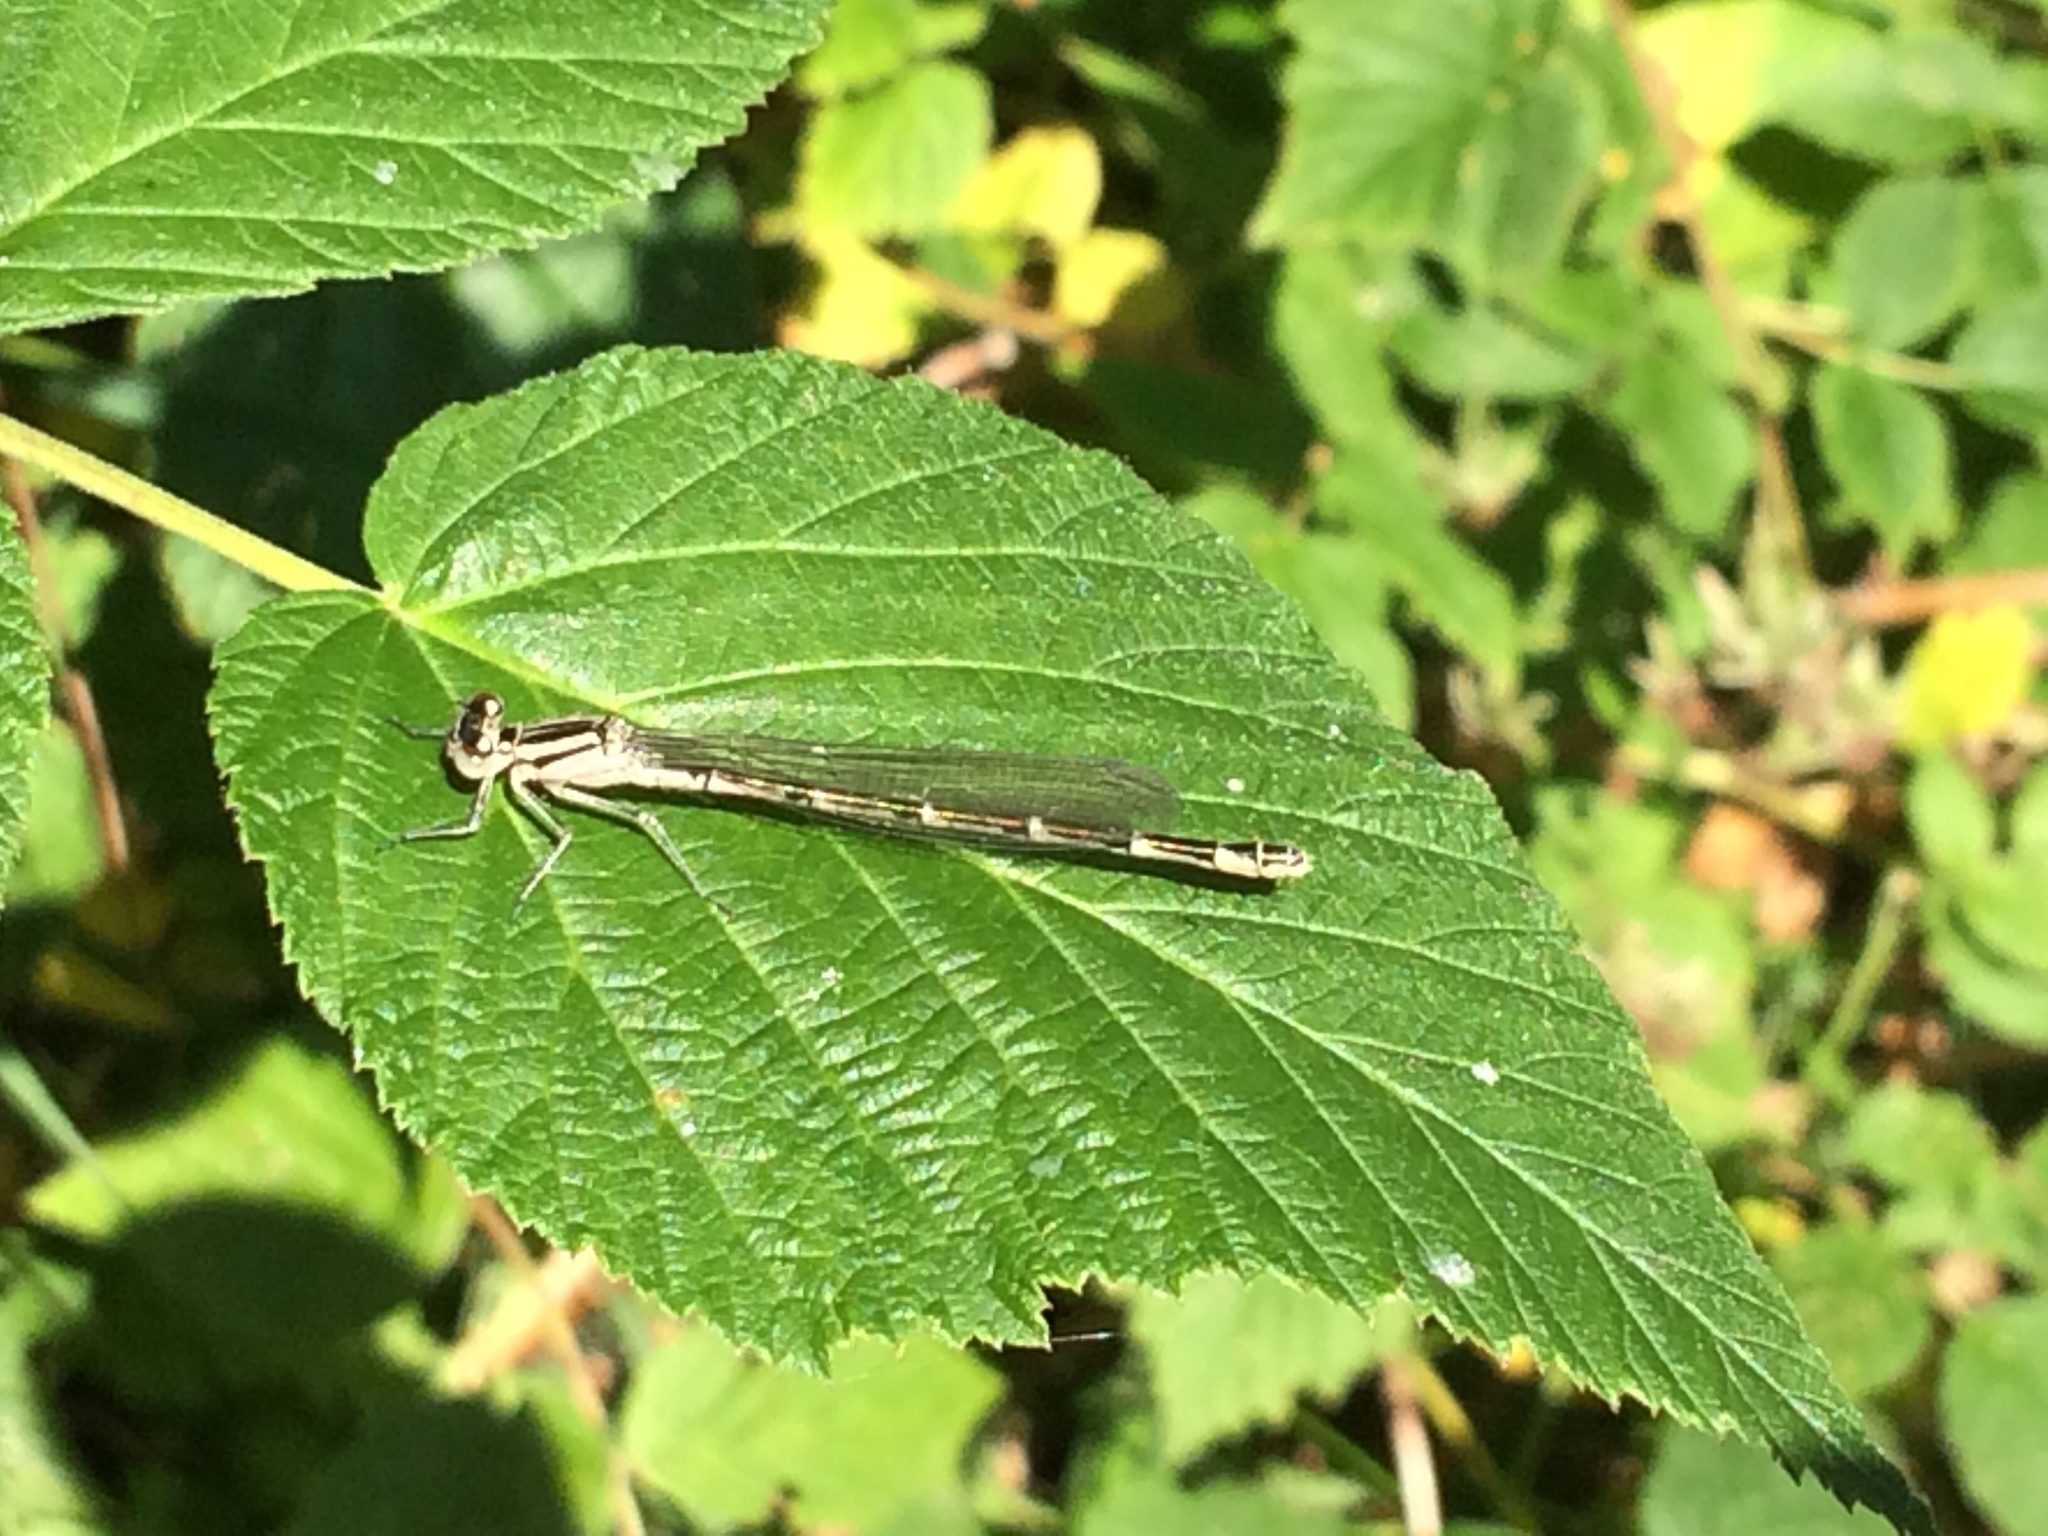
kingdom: Animalia
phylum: Arthropoda
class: Insecta
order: Odonata
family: Coenagrionidae
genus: Enallagma
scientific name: Enallagma cyathigerum
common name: Common blue damselfly
